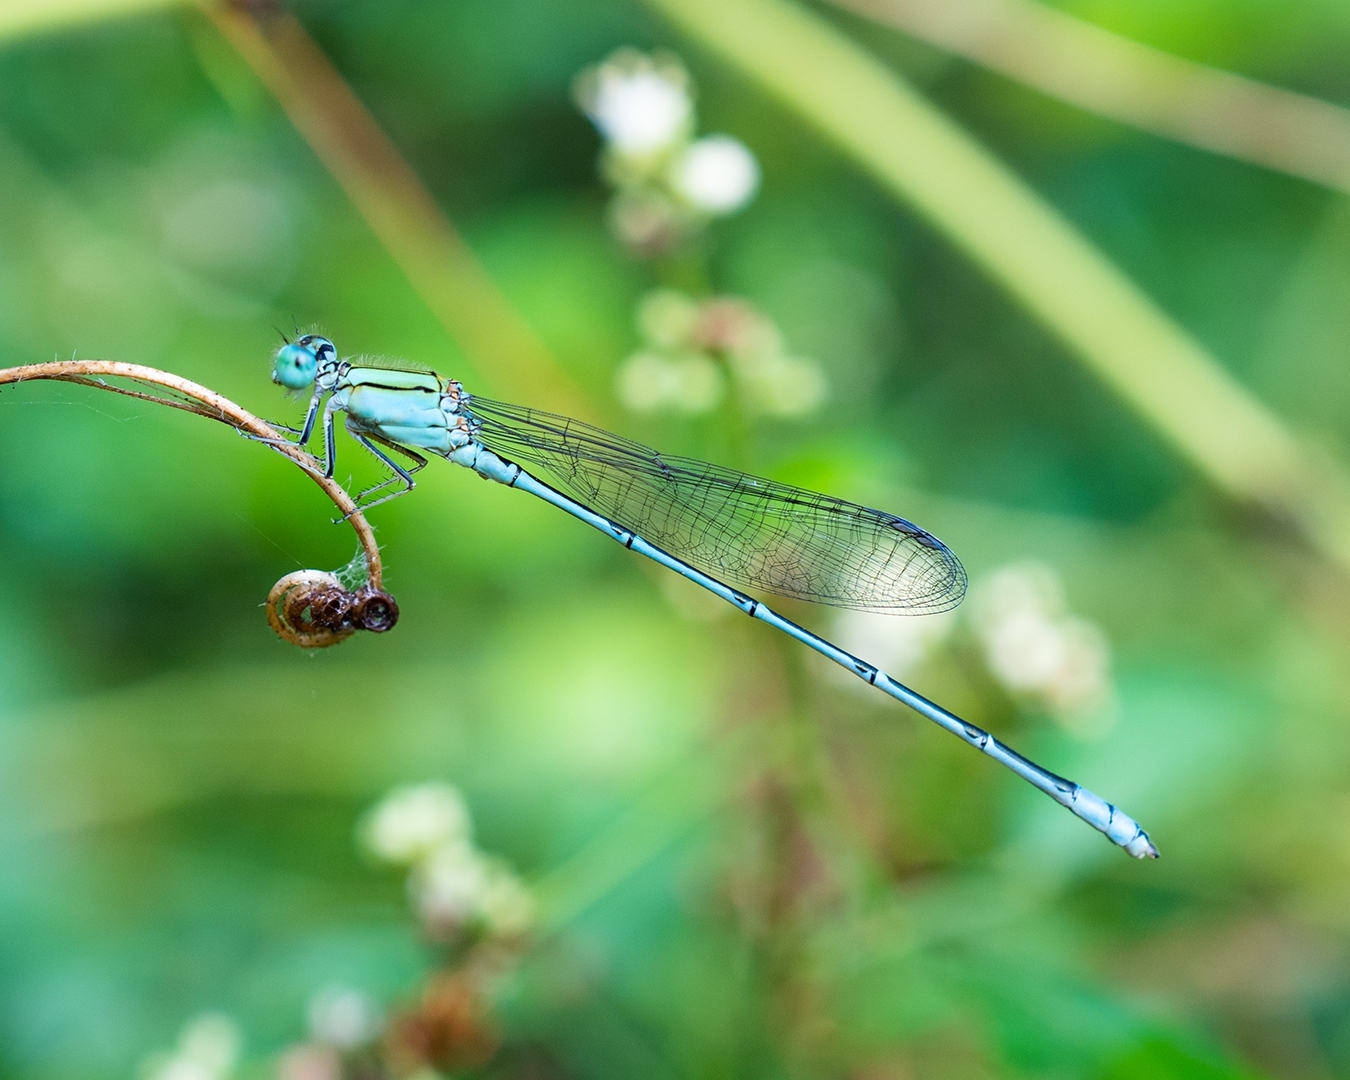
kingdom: Animalia
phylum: Arthropoda
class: Insecta
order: Odonata
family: Coenagrionidae
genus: Pseudagrion
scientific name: Pseudagrion decorum
